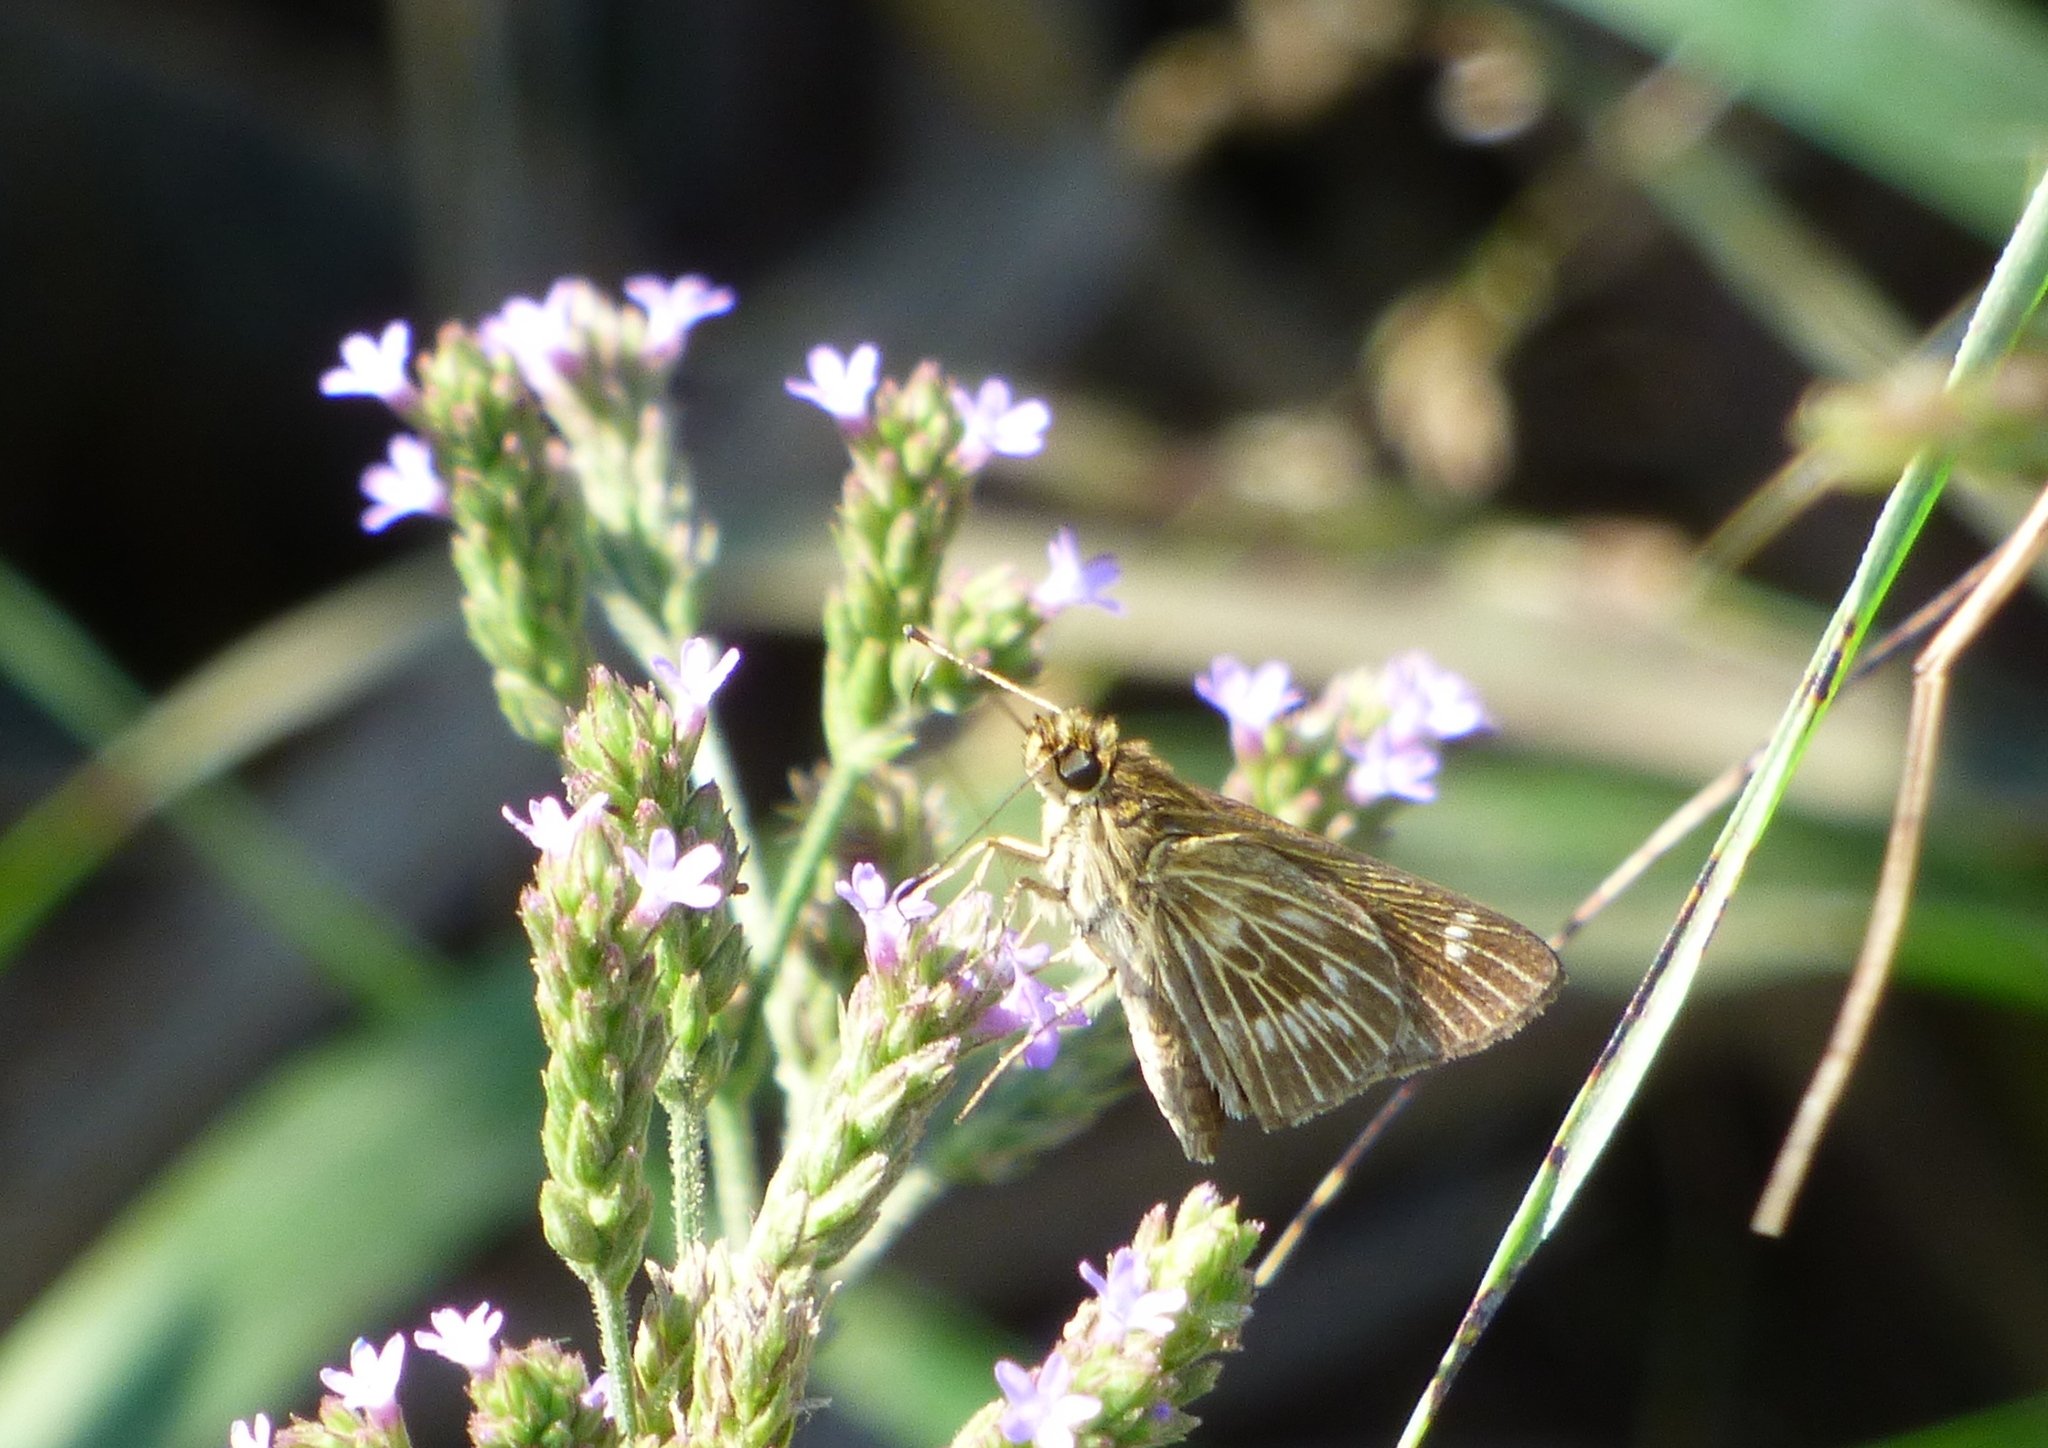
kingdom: Animalia
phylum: Arthropoda
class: Insecta
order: Lepidoptera
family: Hesperiidae
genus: Vehilius
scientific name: Vehilius stictomenes
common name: Pasture skipper
